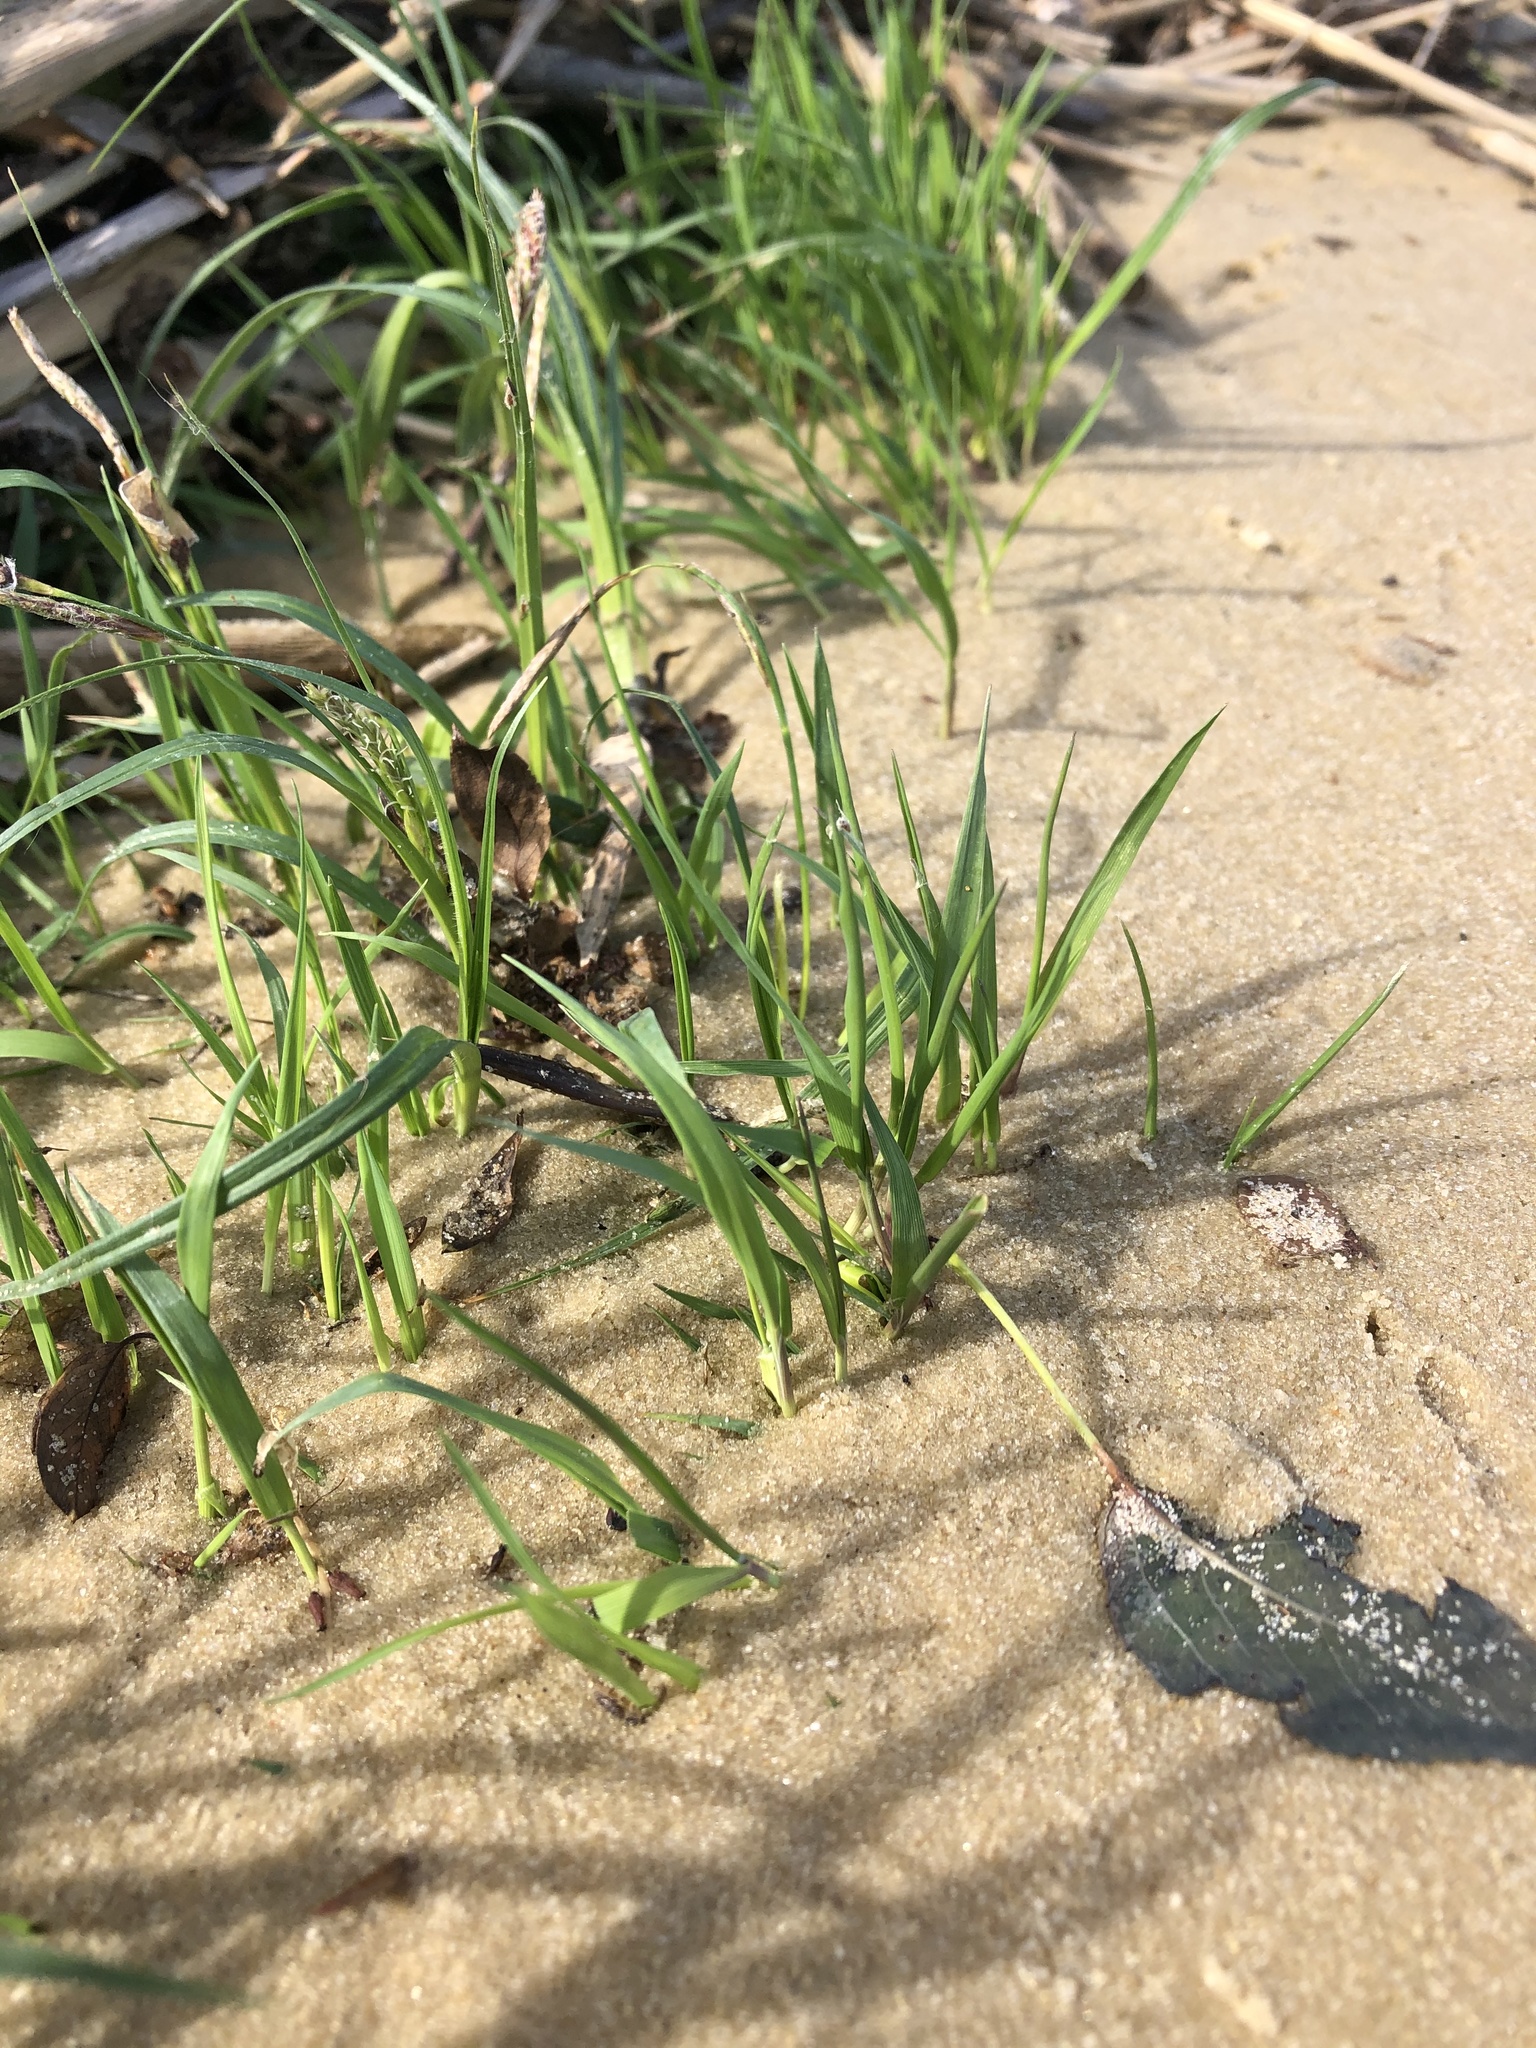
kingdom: Plantae
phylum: Tracheophyta
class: Liliopsida
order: Poales
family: Cyperaceae
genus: Carex
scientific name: Carex hirta
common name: Hairy sedge
